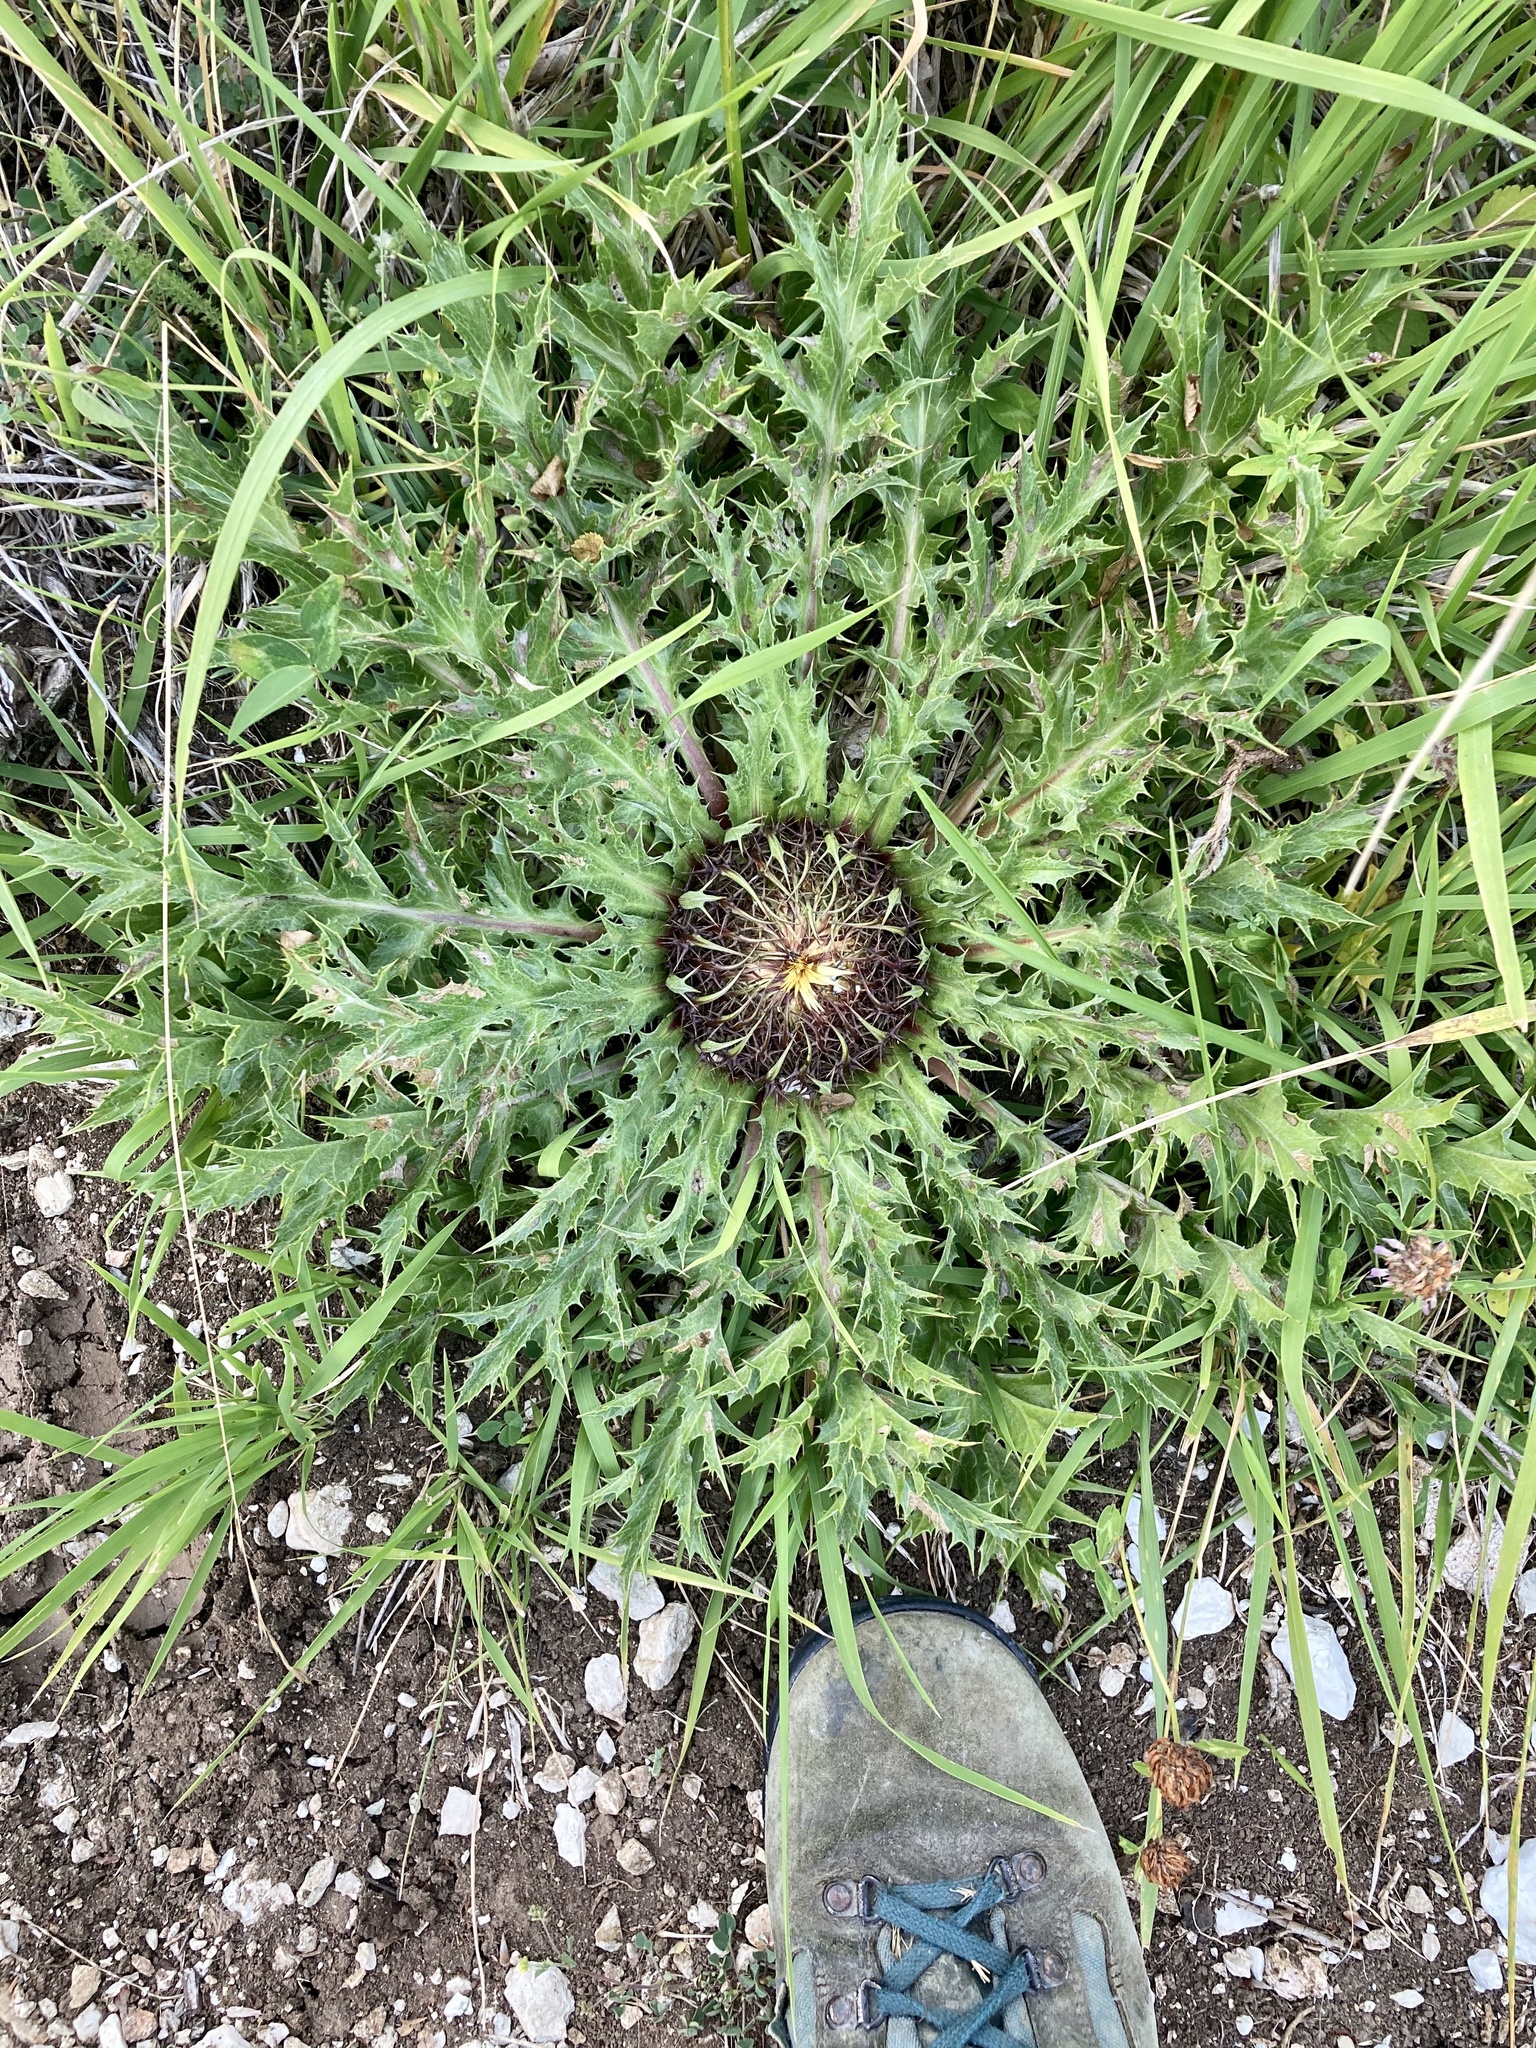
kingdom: Plantae
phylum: Tracheophyta
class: Magnoliopsida
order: Asterales
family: Asteraceae
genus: Carlina
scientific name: Carlina acanthifolia
